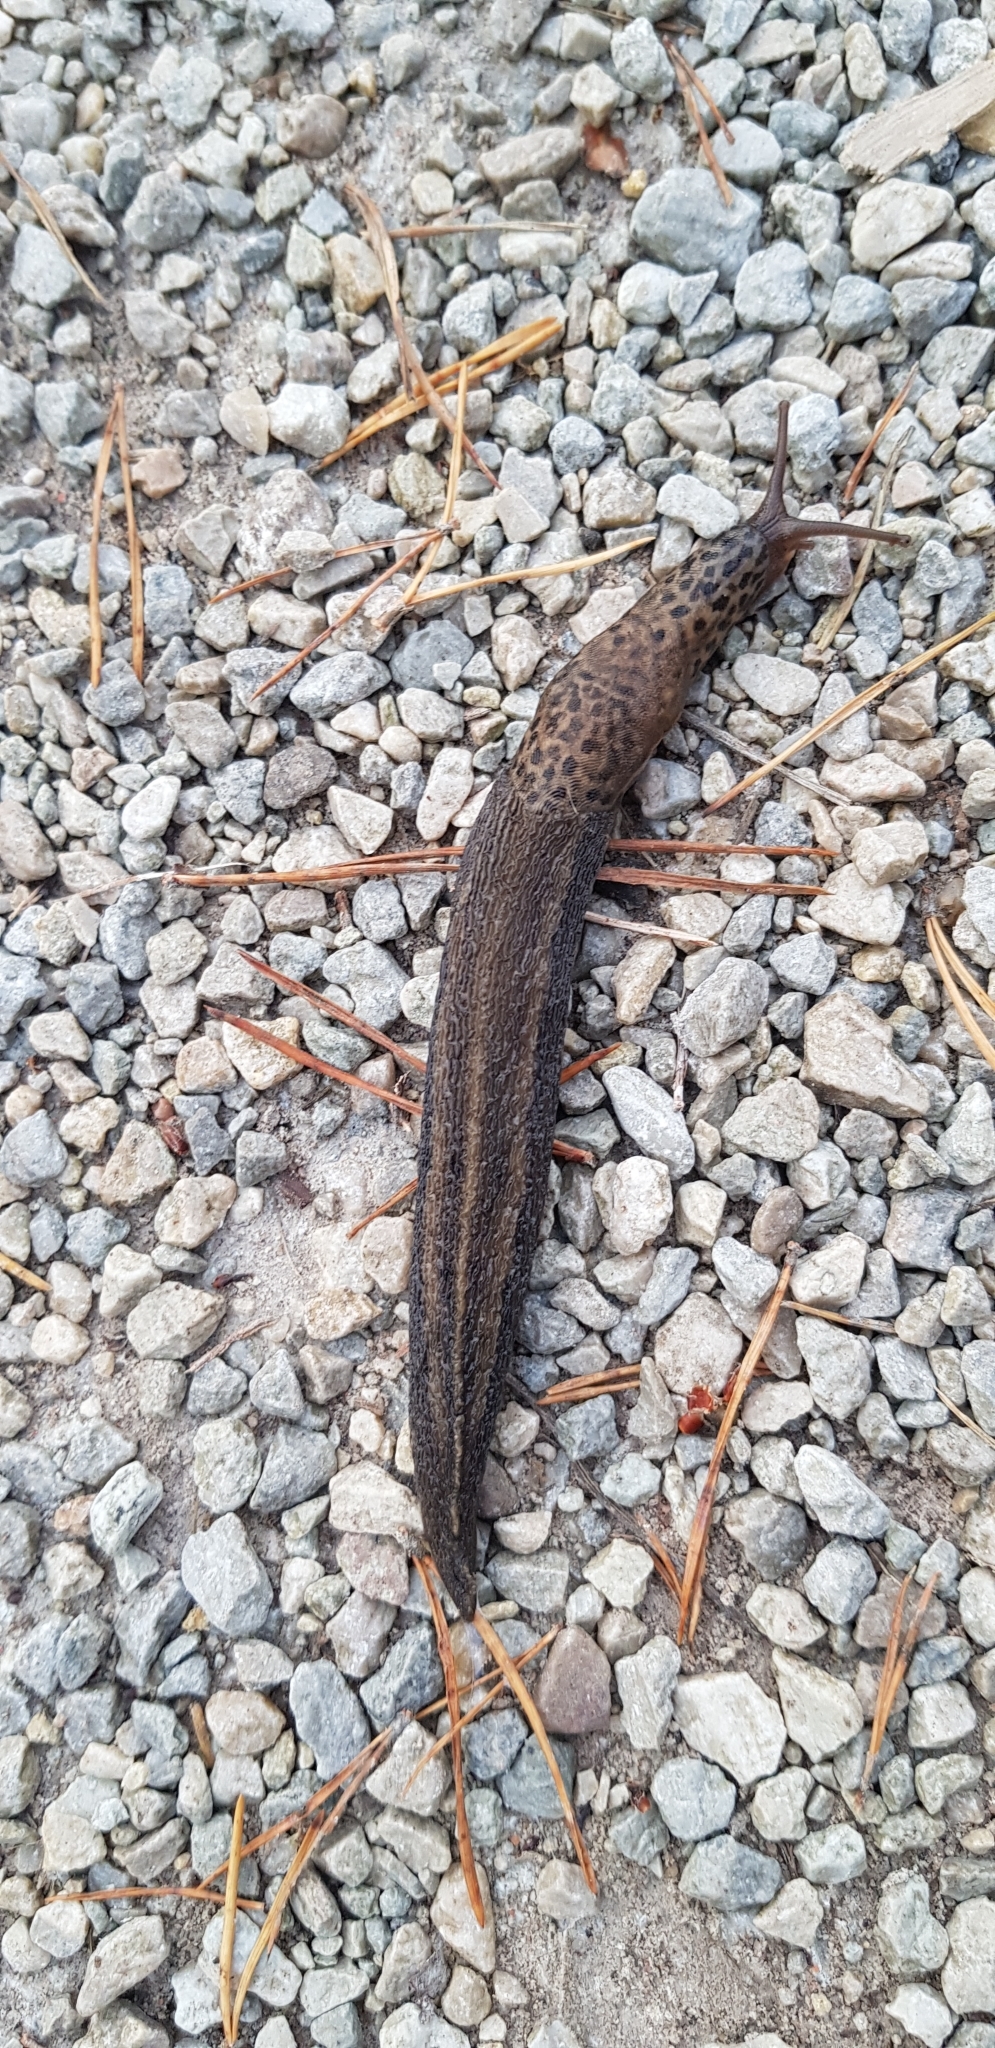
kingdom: Animalia
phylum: Mollusca
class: Gastropoda
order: Stylommatophora
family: Limacidae
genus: Limax
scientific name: Limax maximus
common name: Great grey slug
